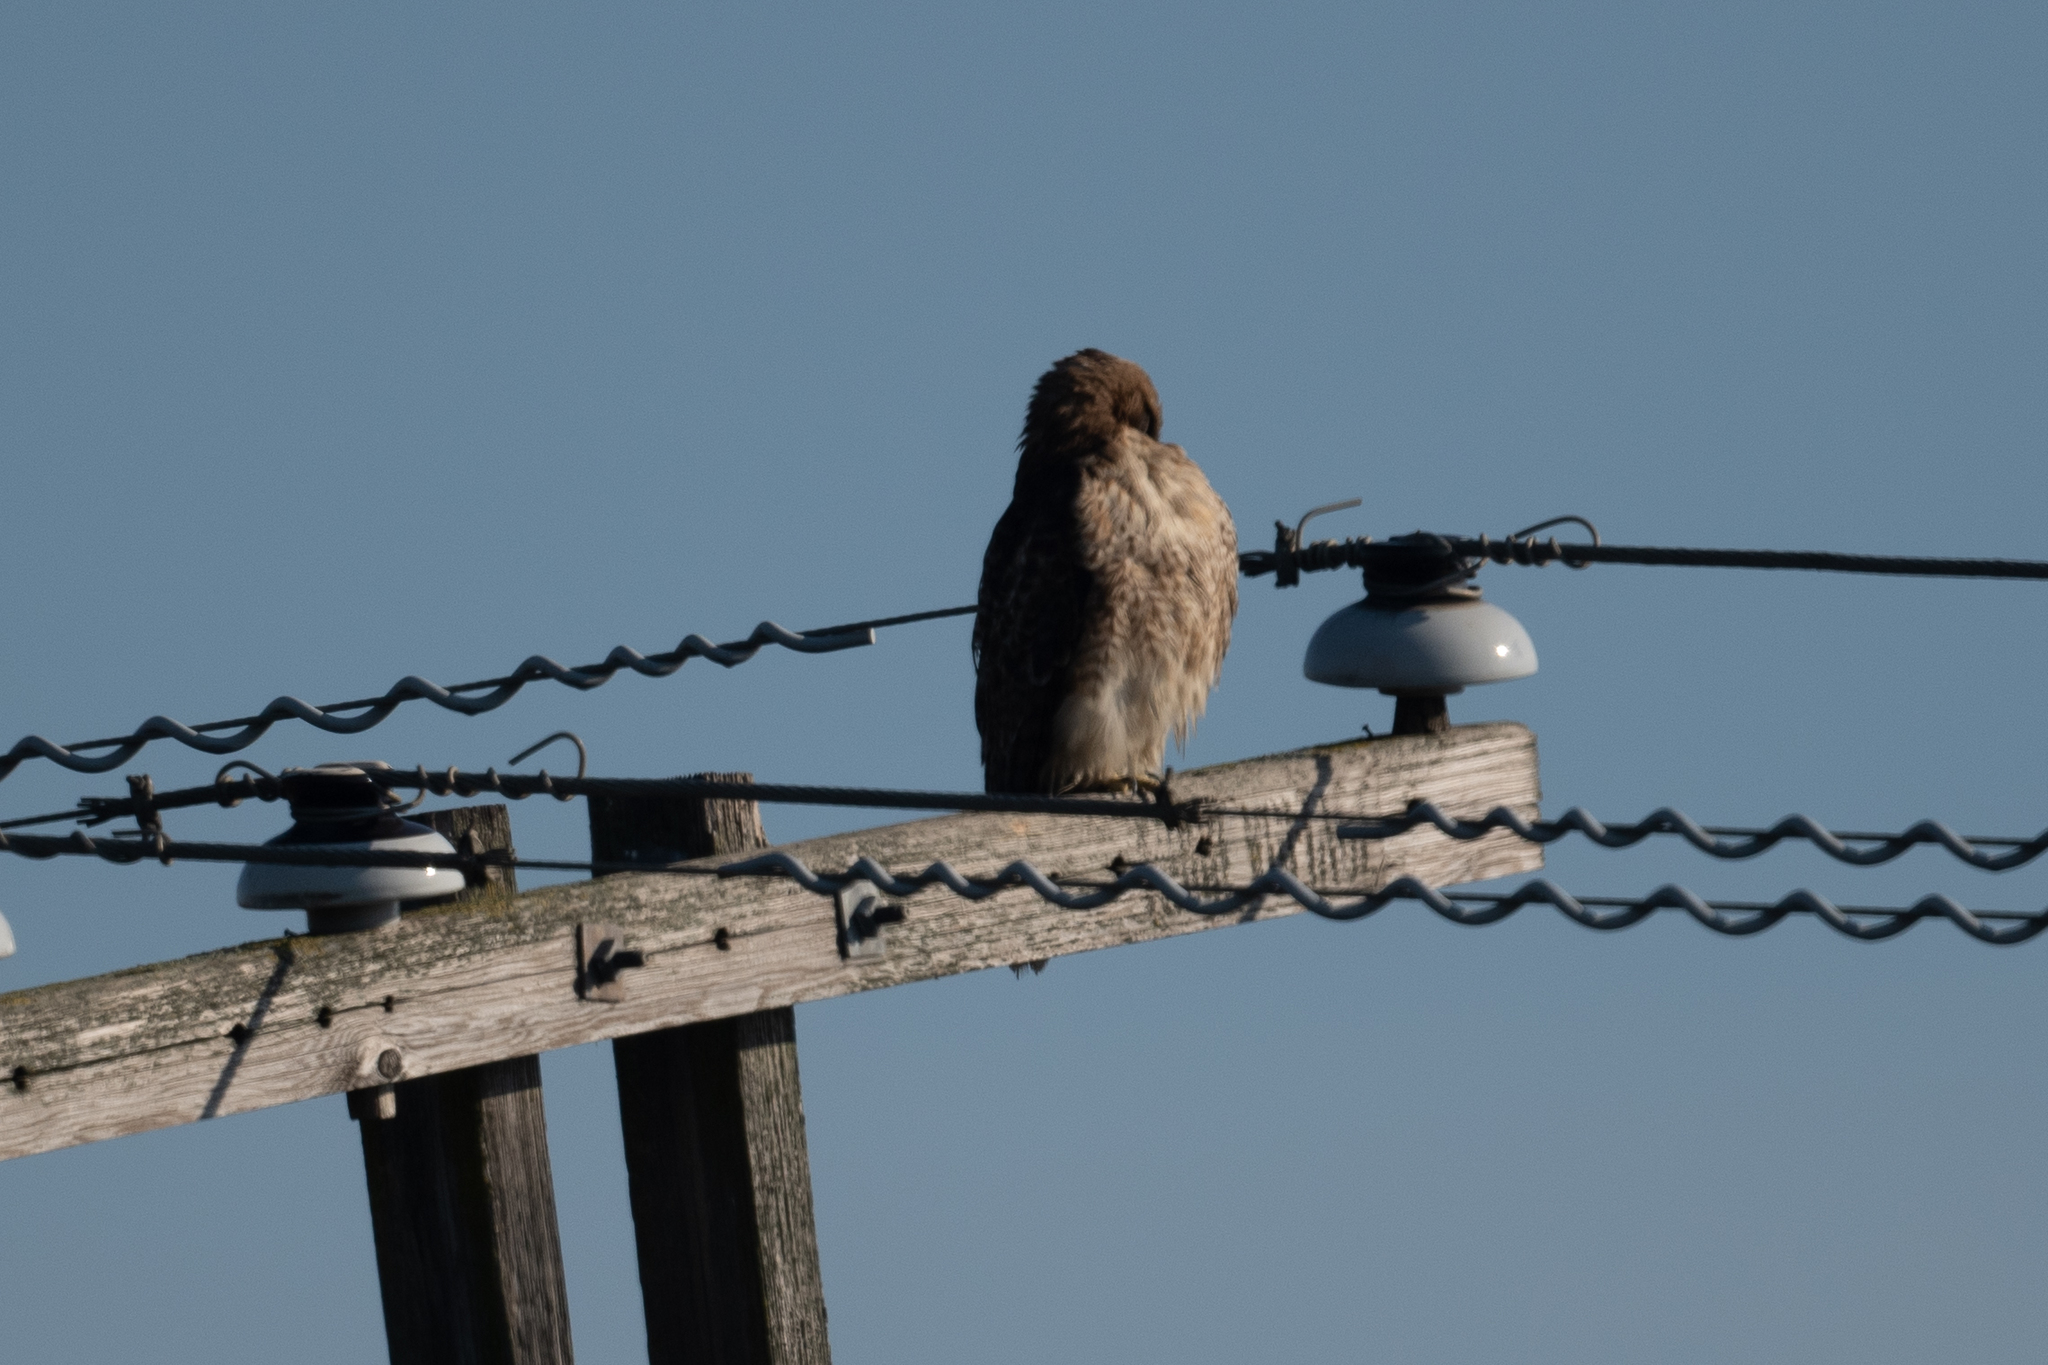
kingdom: Animalia
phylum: Chordata
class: Aves
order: Accipitriformes
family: Accipitridae
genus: Buteo
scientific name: Buteo jamaicensis
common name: Red-tailed hawk
